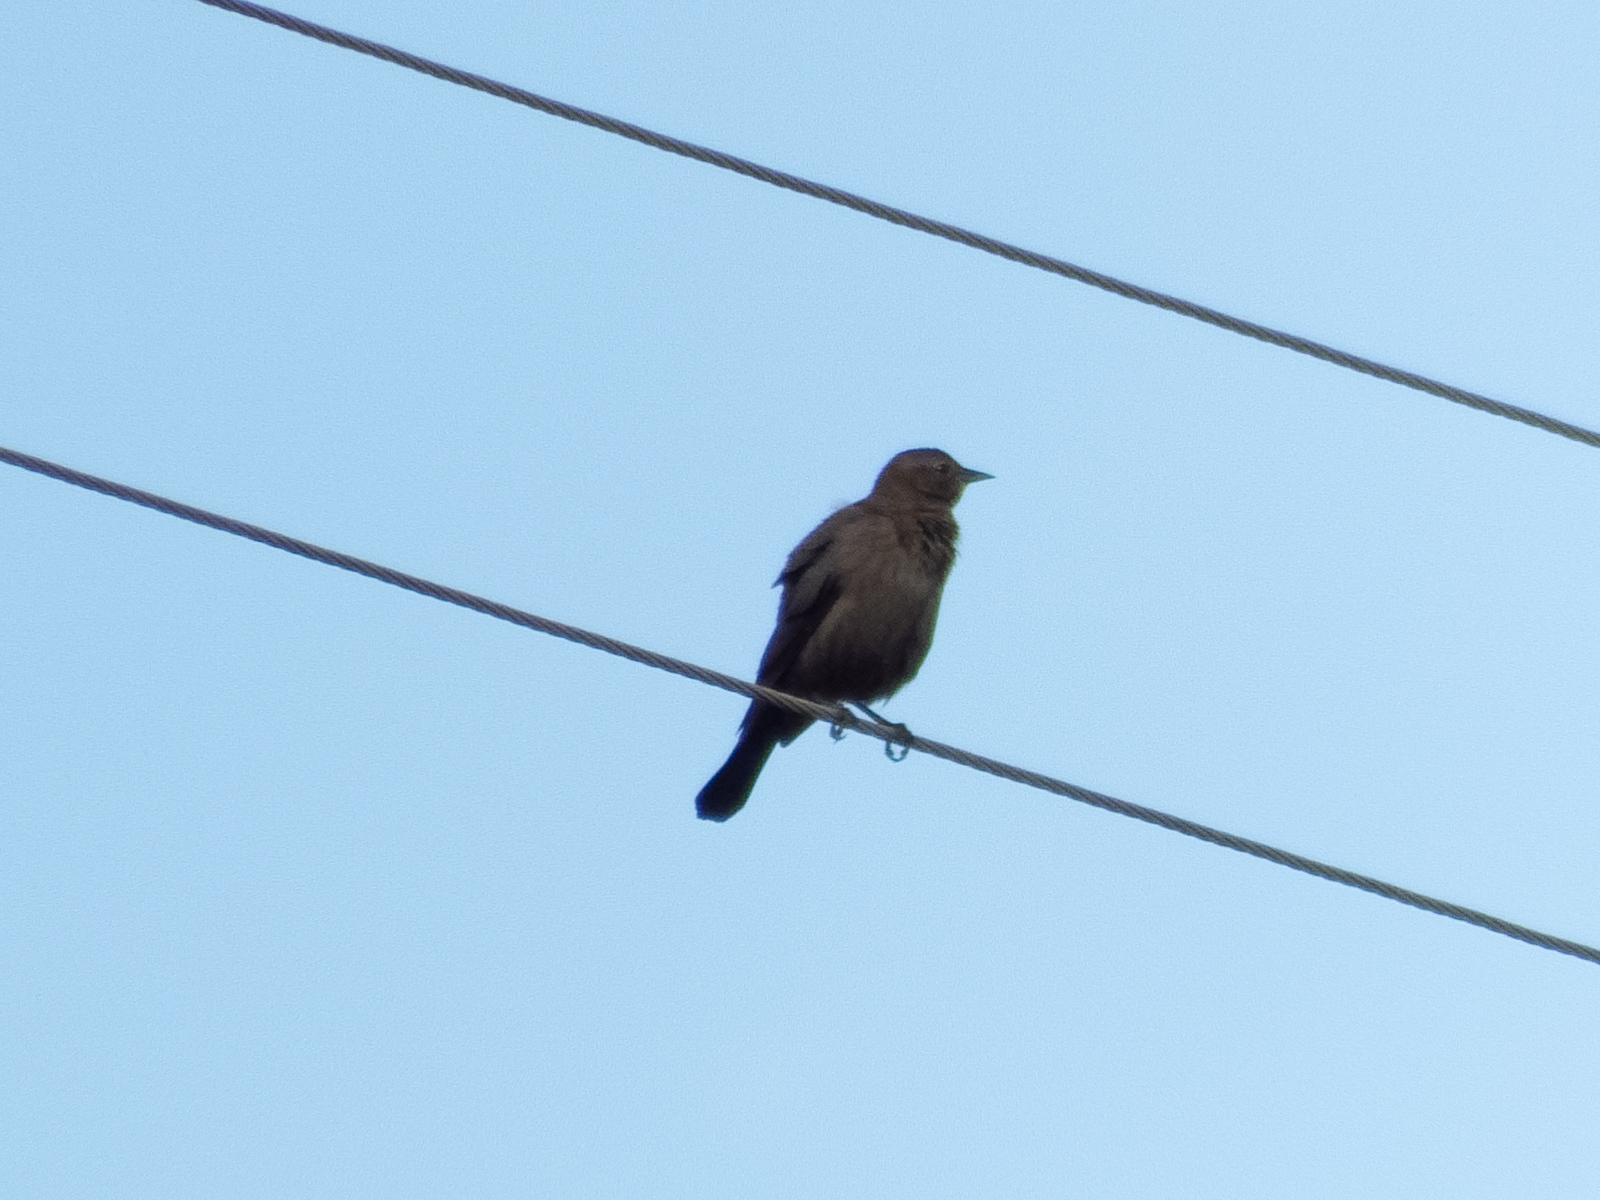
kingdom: Animalia
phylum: Chordata
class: Aves
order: Passeriformes
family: Icteridae
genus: Euphagus
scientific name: Euphagus cyanocephalus
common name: Brewer's blackbird
